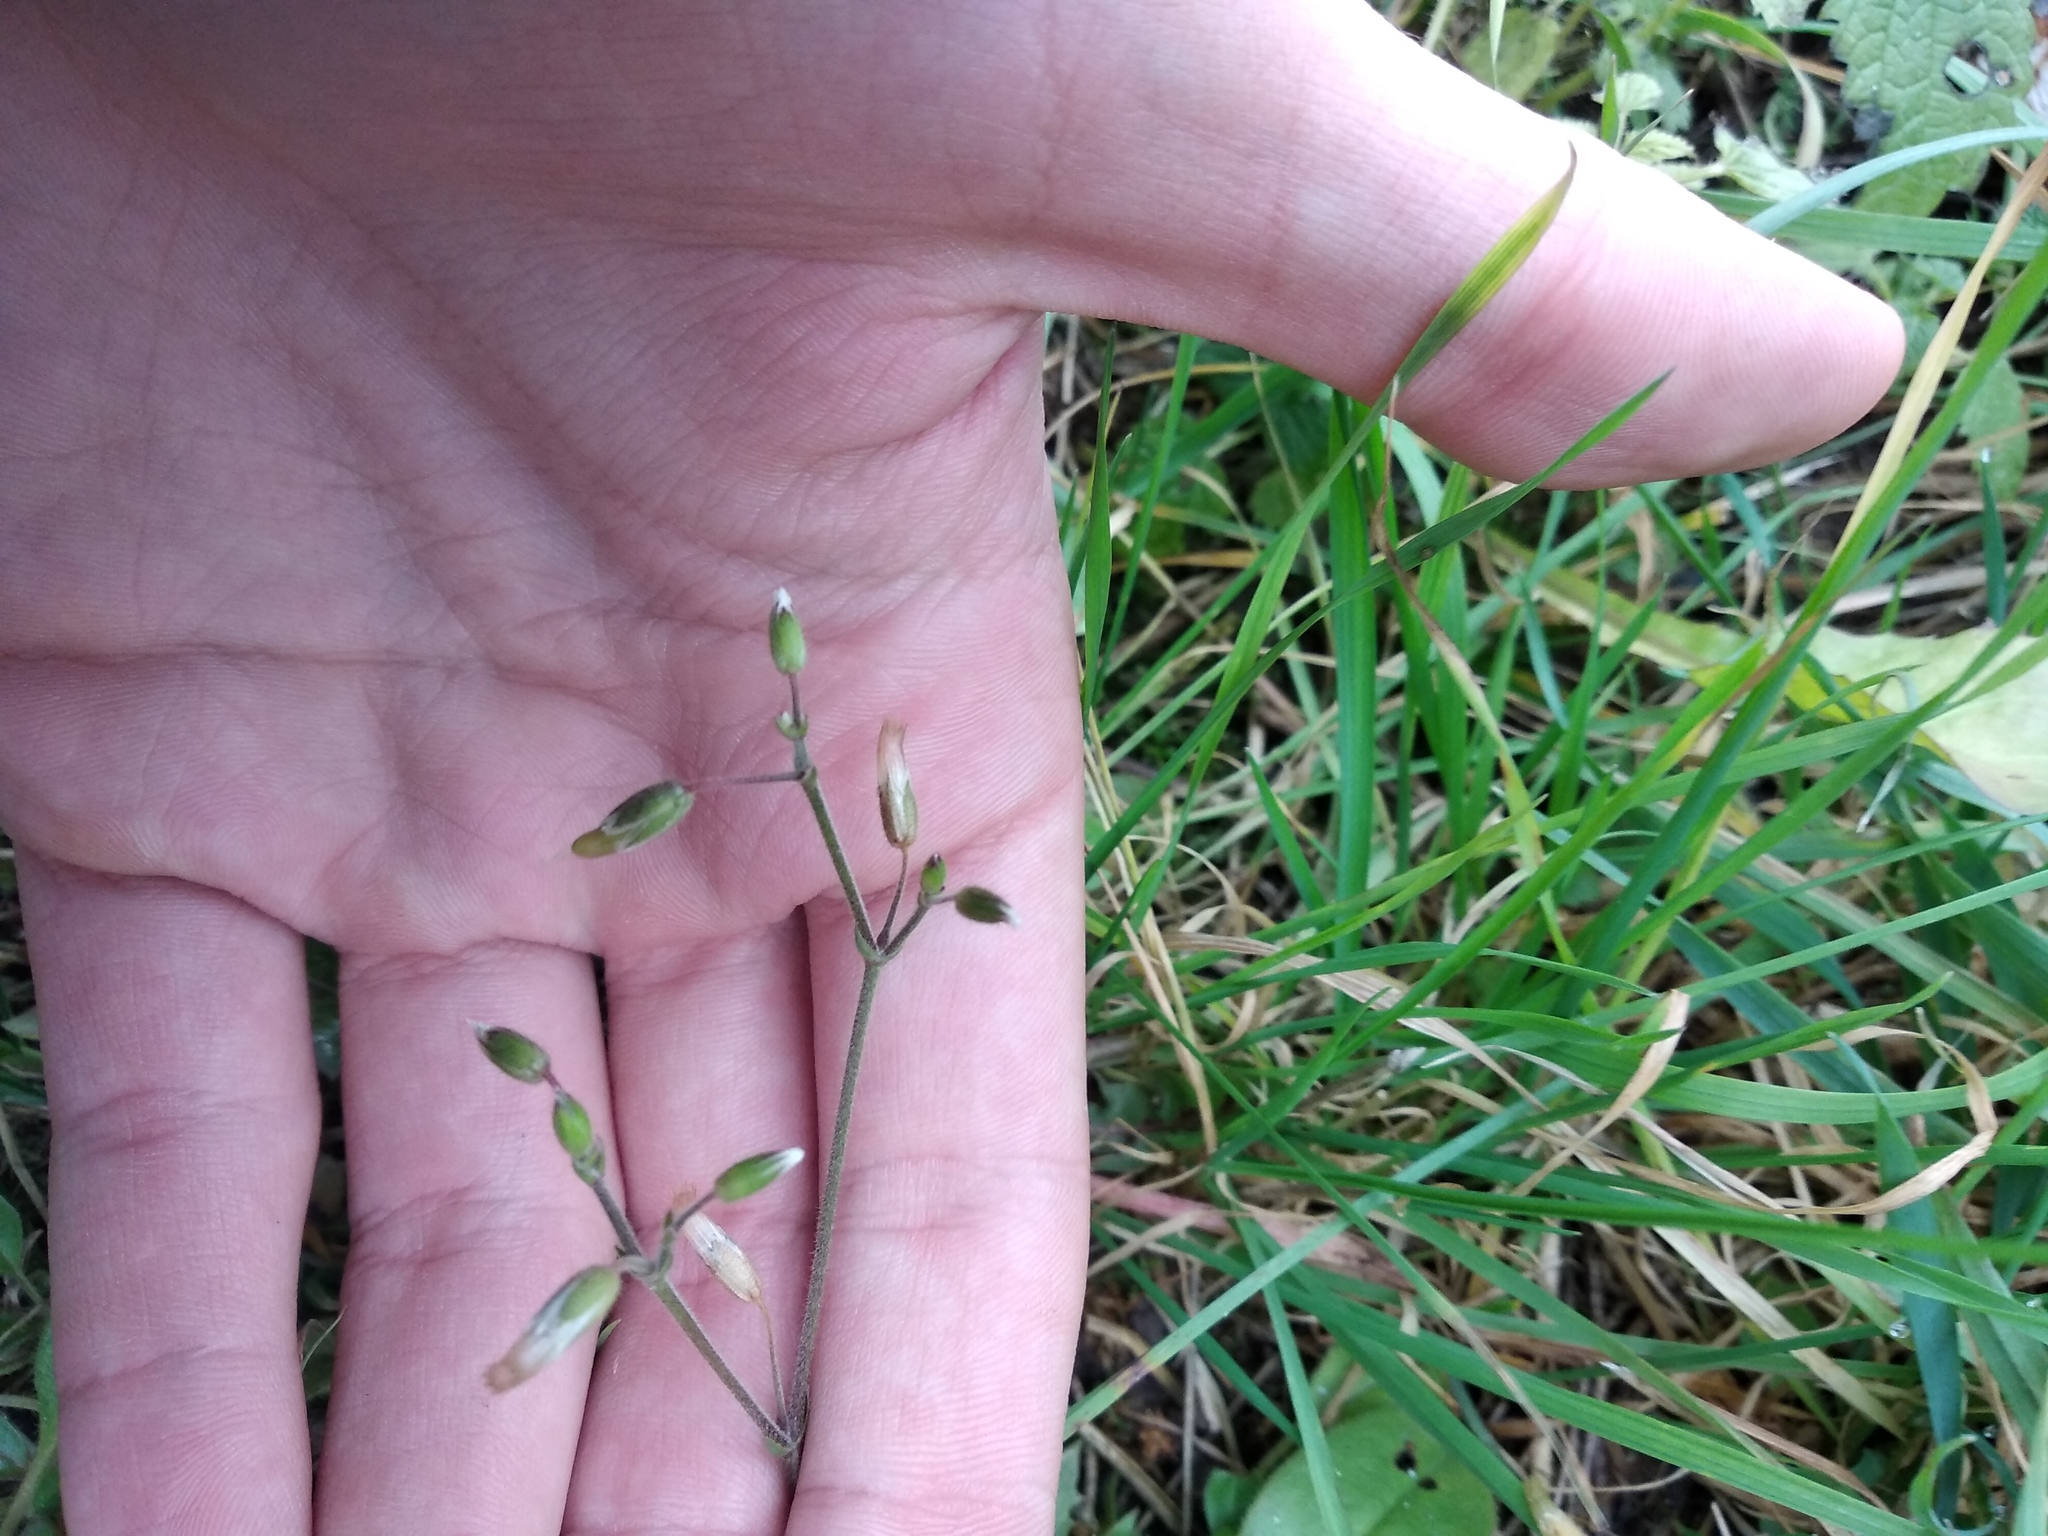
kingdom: Plantae
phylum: Tracheophyta
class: Magnoliopsida
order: Caryophyllales
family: Caryophyllaceae
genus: Cerastium
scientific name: Cerastium holosteoides
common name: Big chickweed
